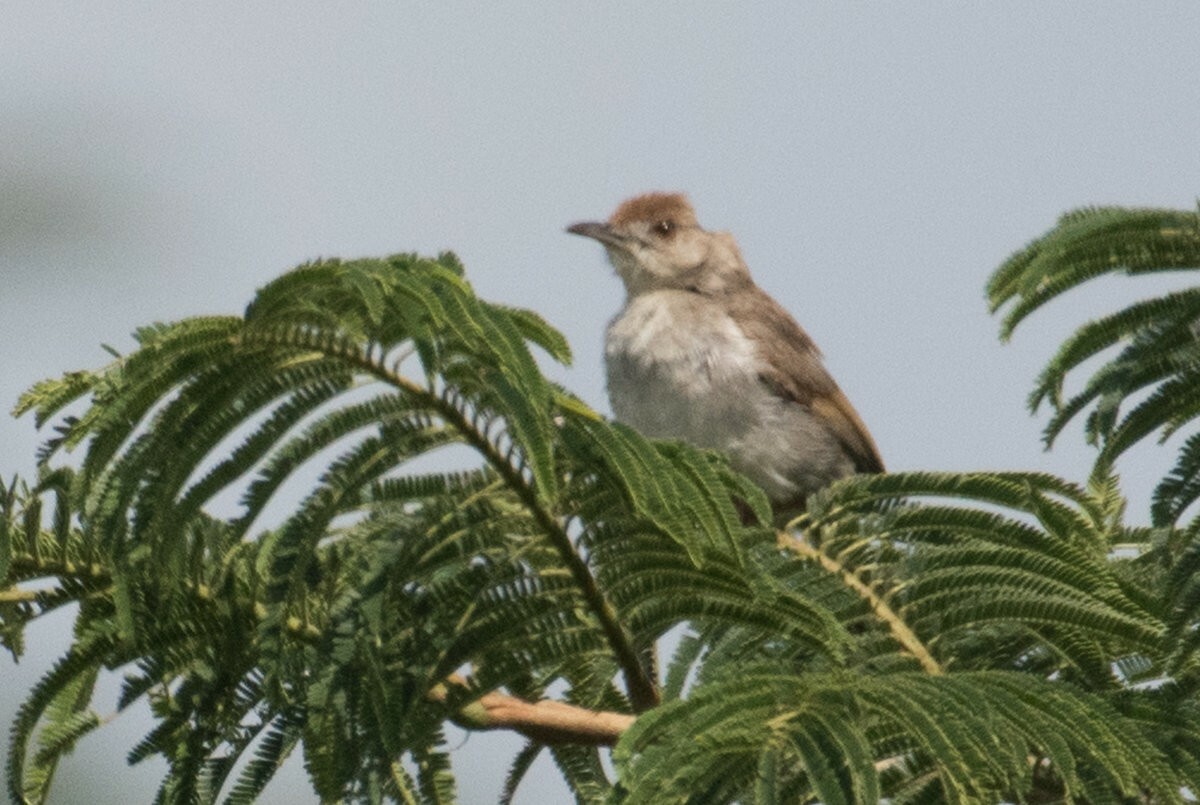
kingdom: Animalia
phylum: Chordata
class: Aves
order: Passeriformes
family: Cisticolidae
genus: Cisticola
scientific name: Cisticola fulvicapilla
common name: Neddicky
